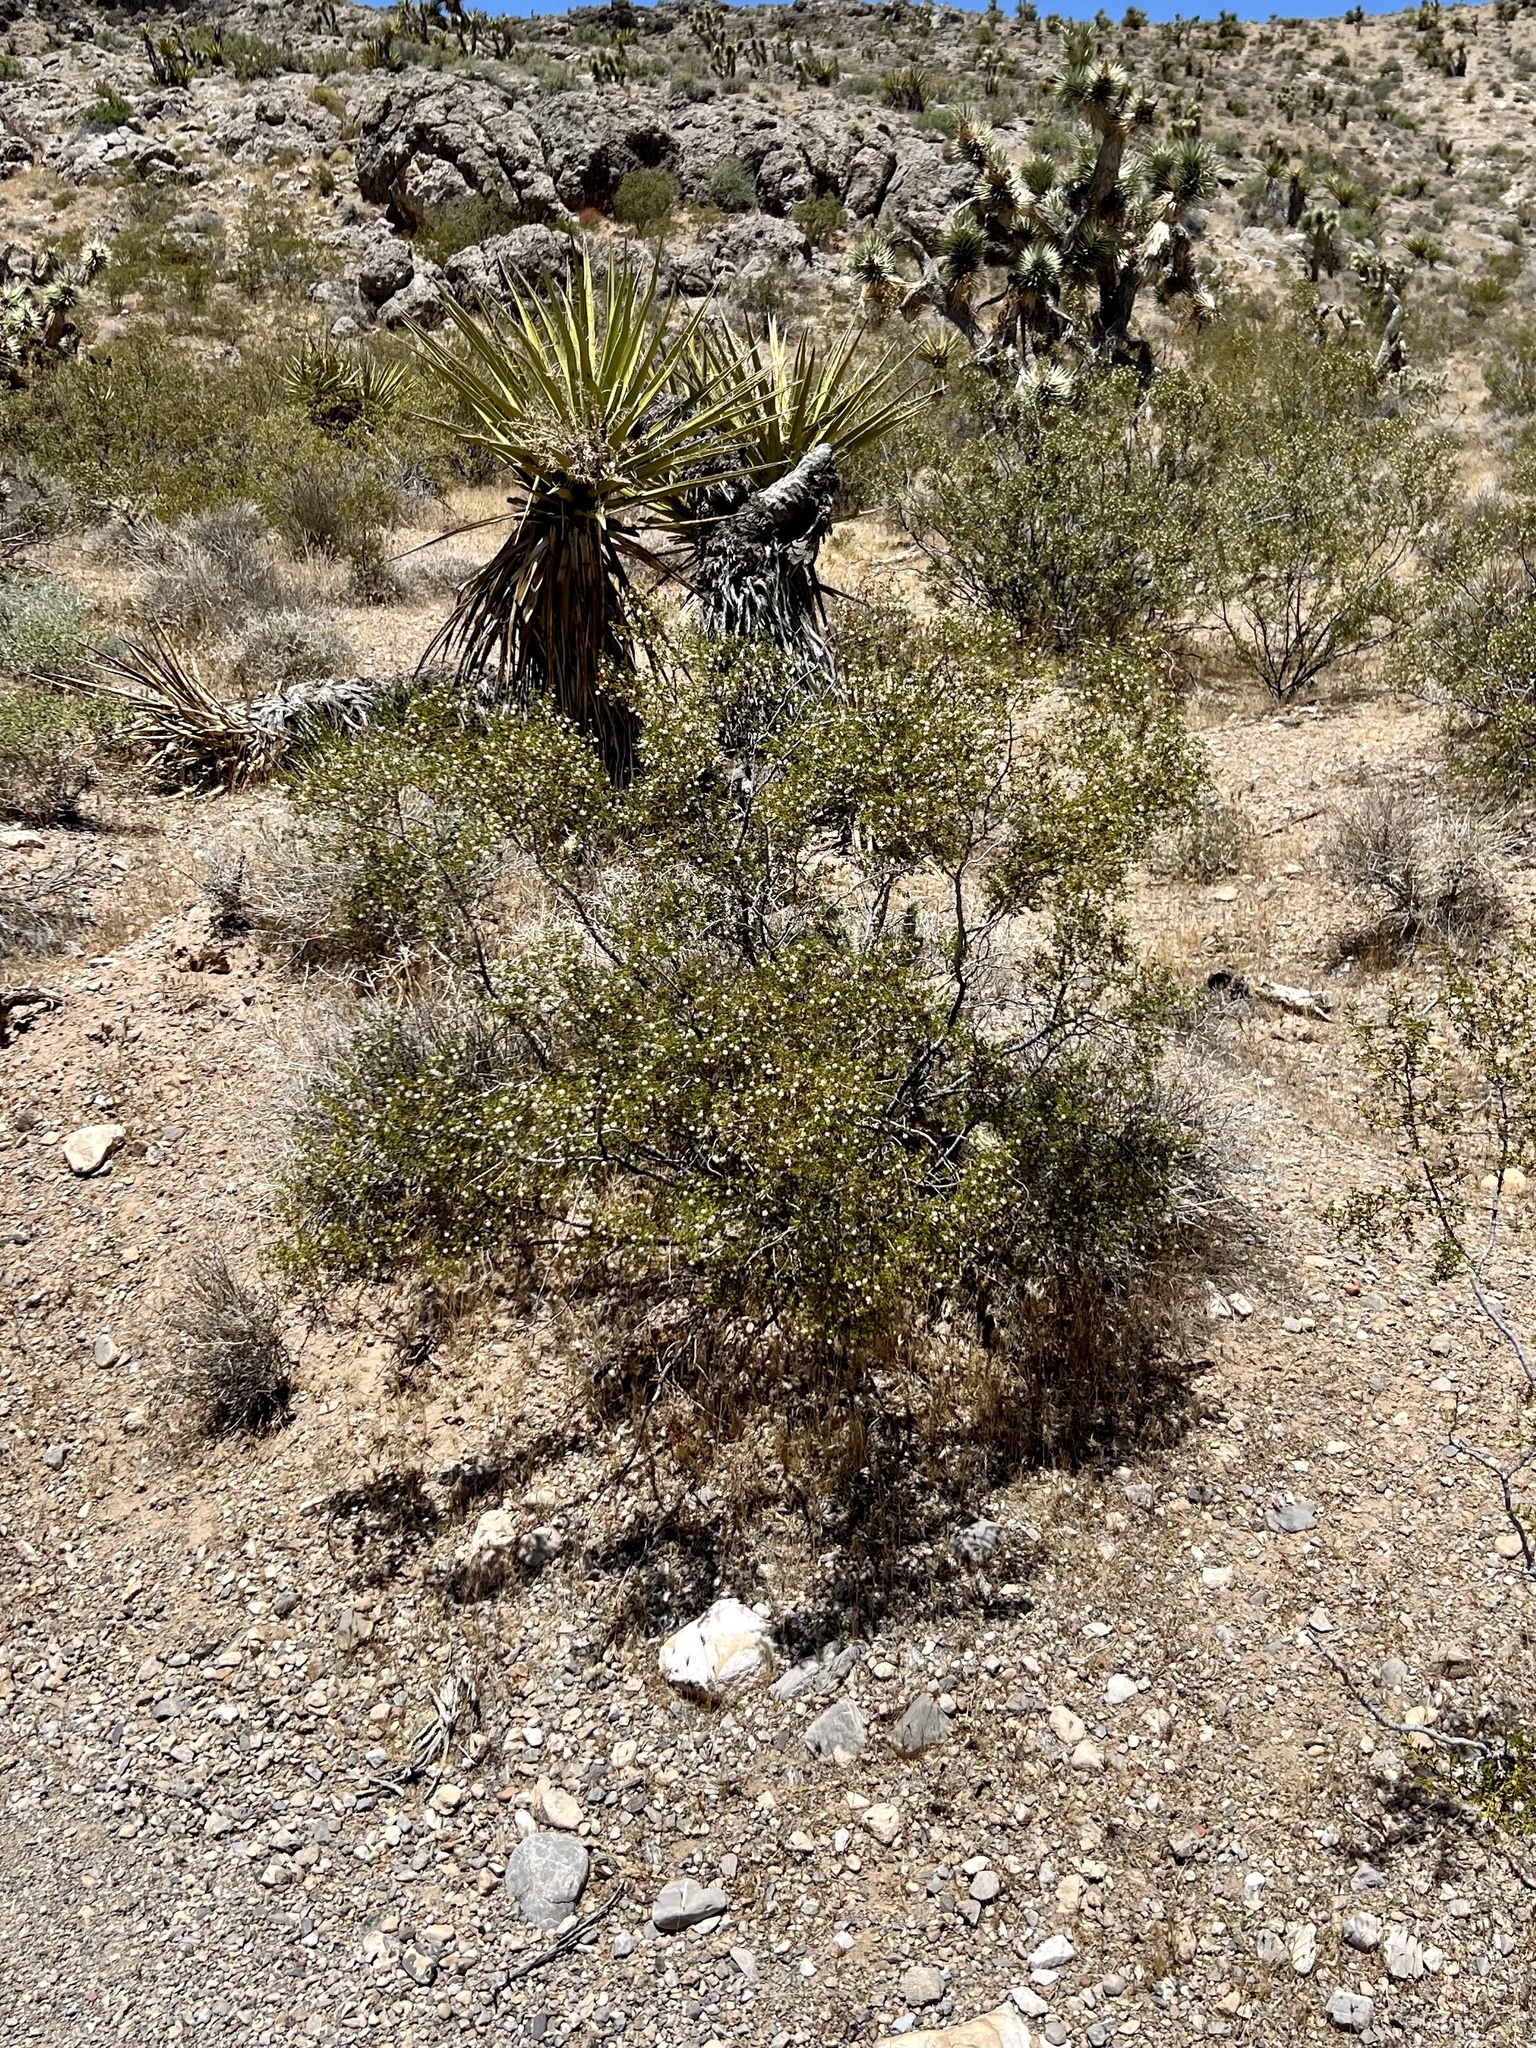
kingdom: Plantae
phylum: Tracheophyta
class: Magnoliopsida
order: Zygophyllales
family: Zygophyllaceae
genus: Larrea
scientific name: Larrea tridentata
